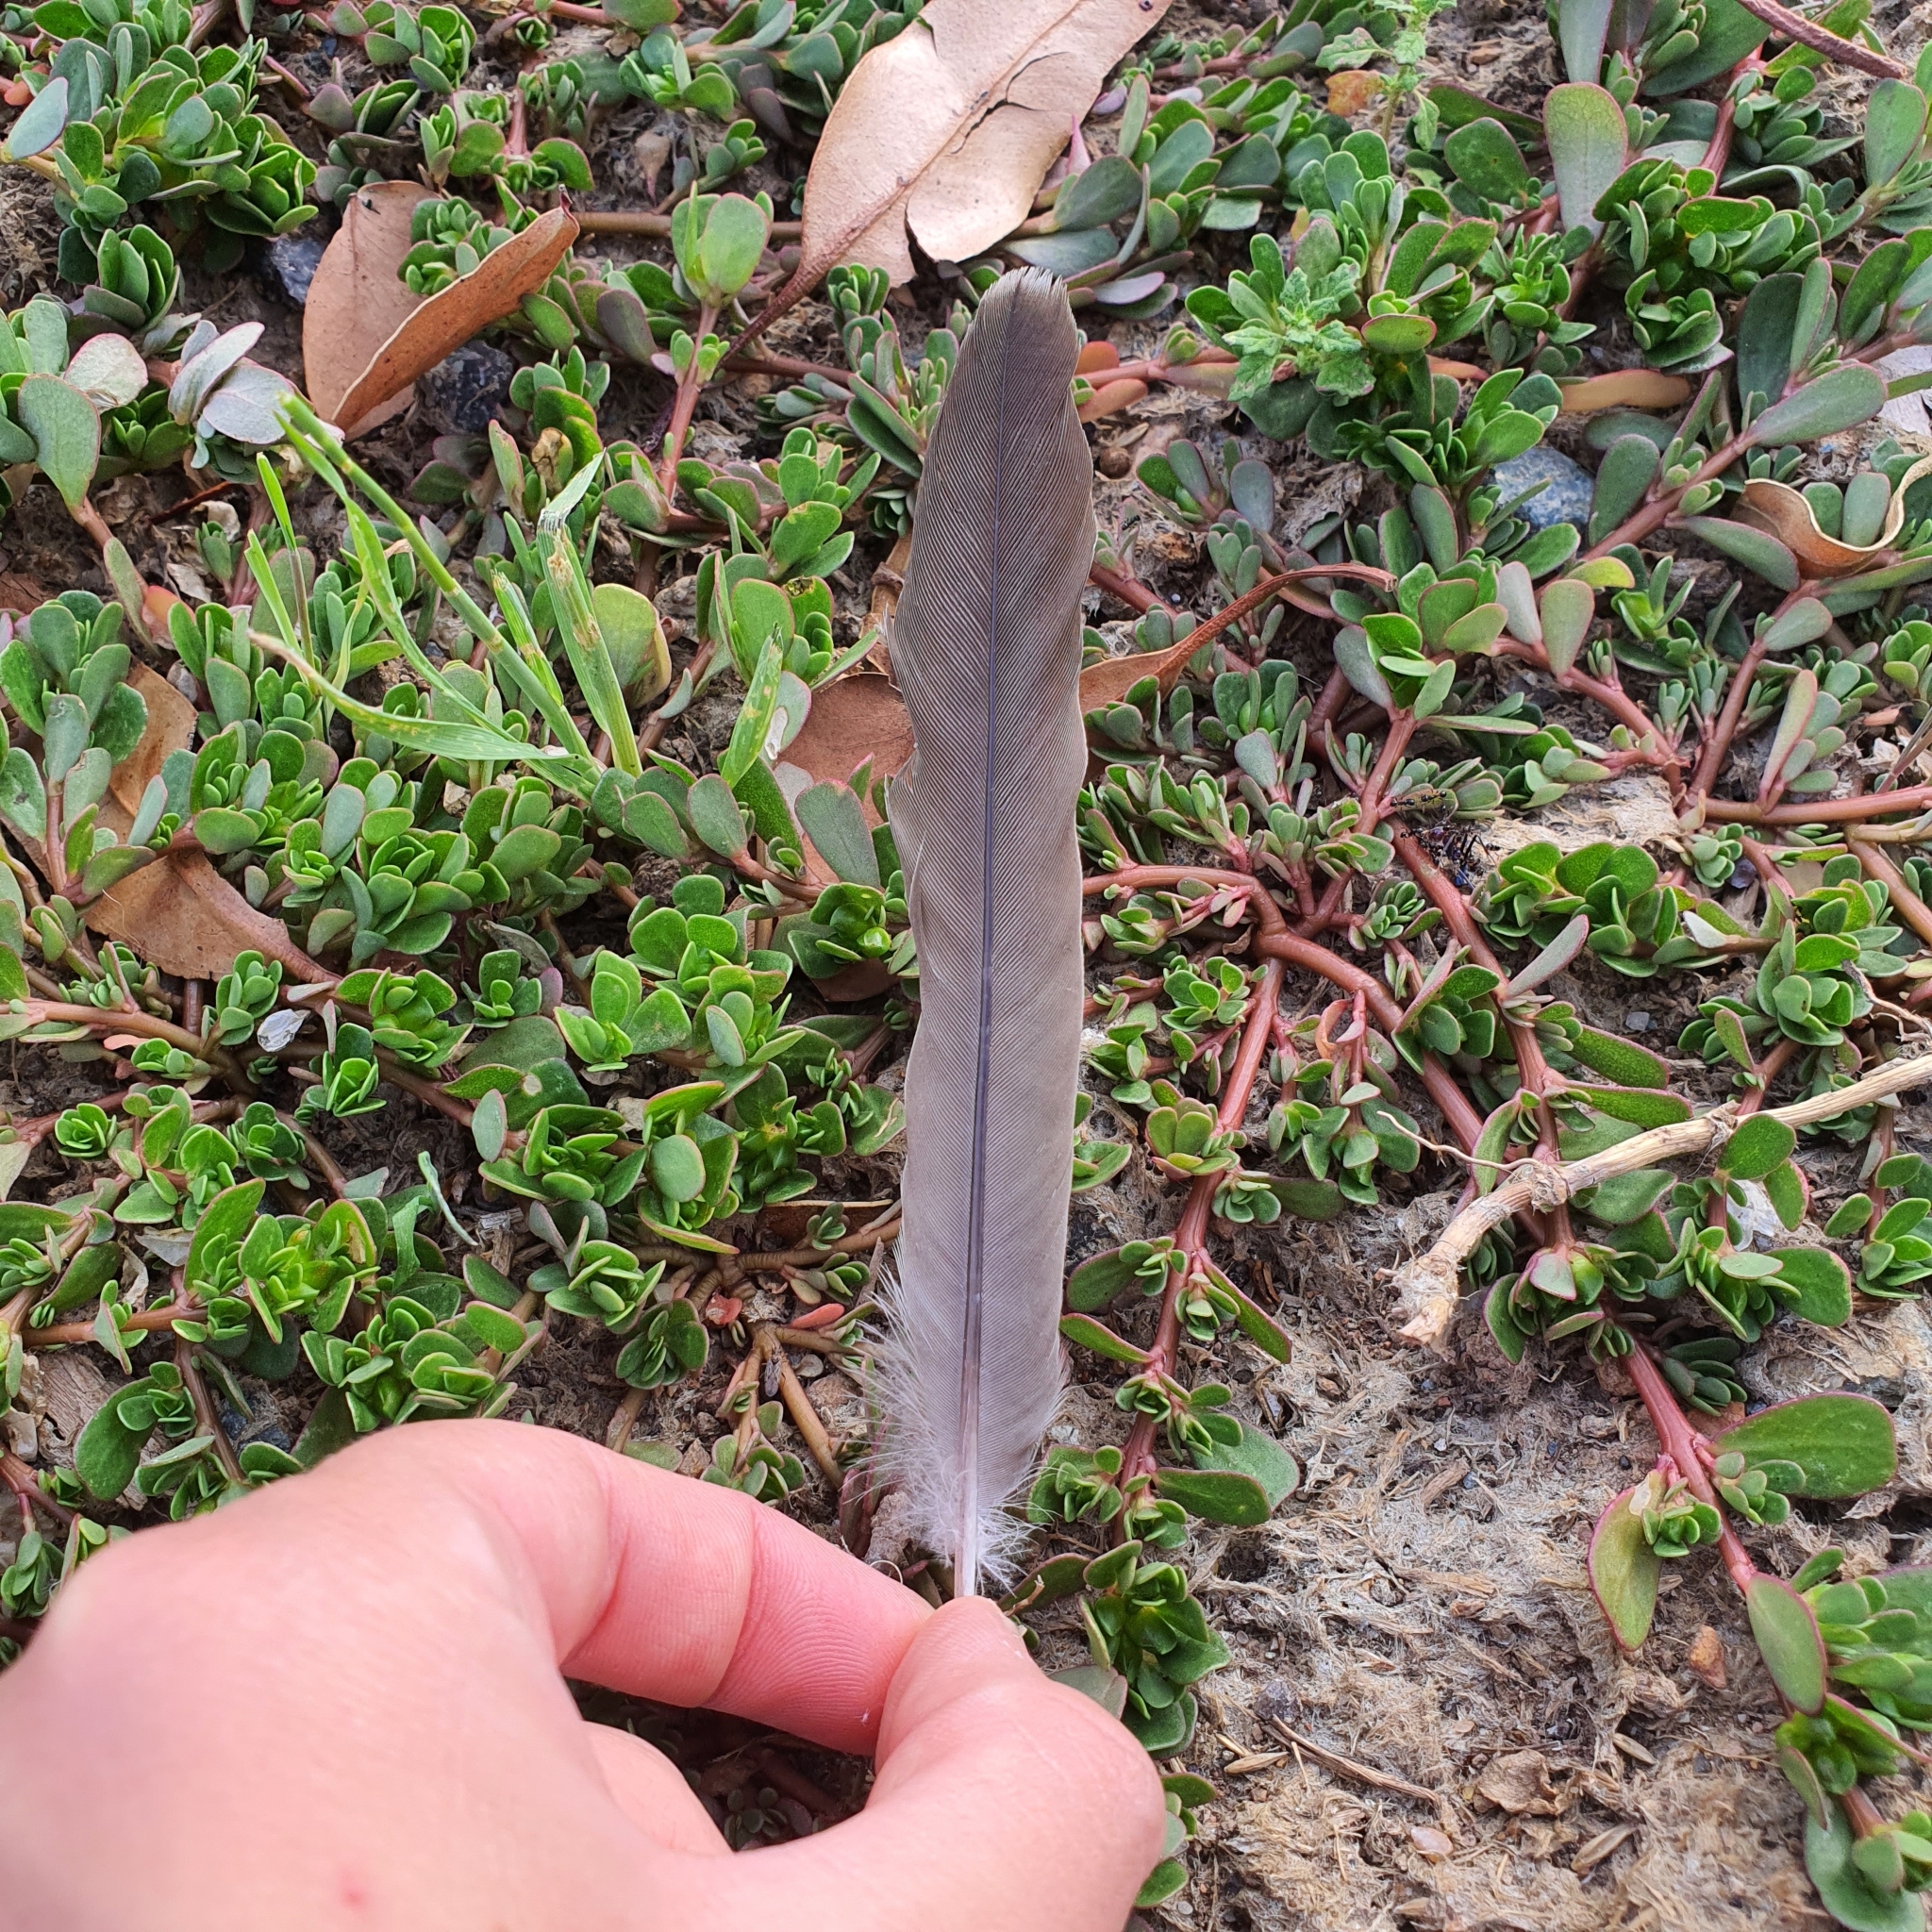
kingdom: Animalia
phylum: Chordata
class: Aves
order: Columbiformes
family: Columbidae
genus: Ocyphaps
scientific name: Ocyphaps lophotes
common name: Crested pigeon
